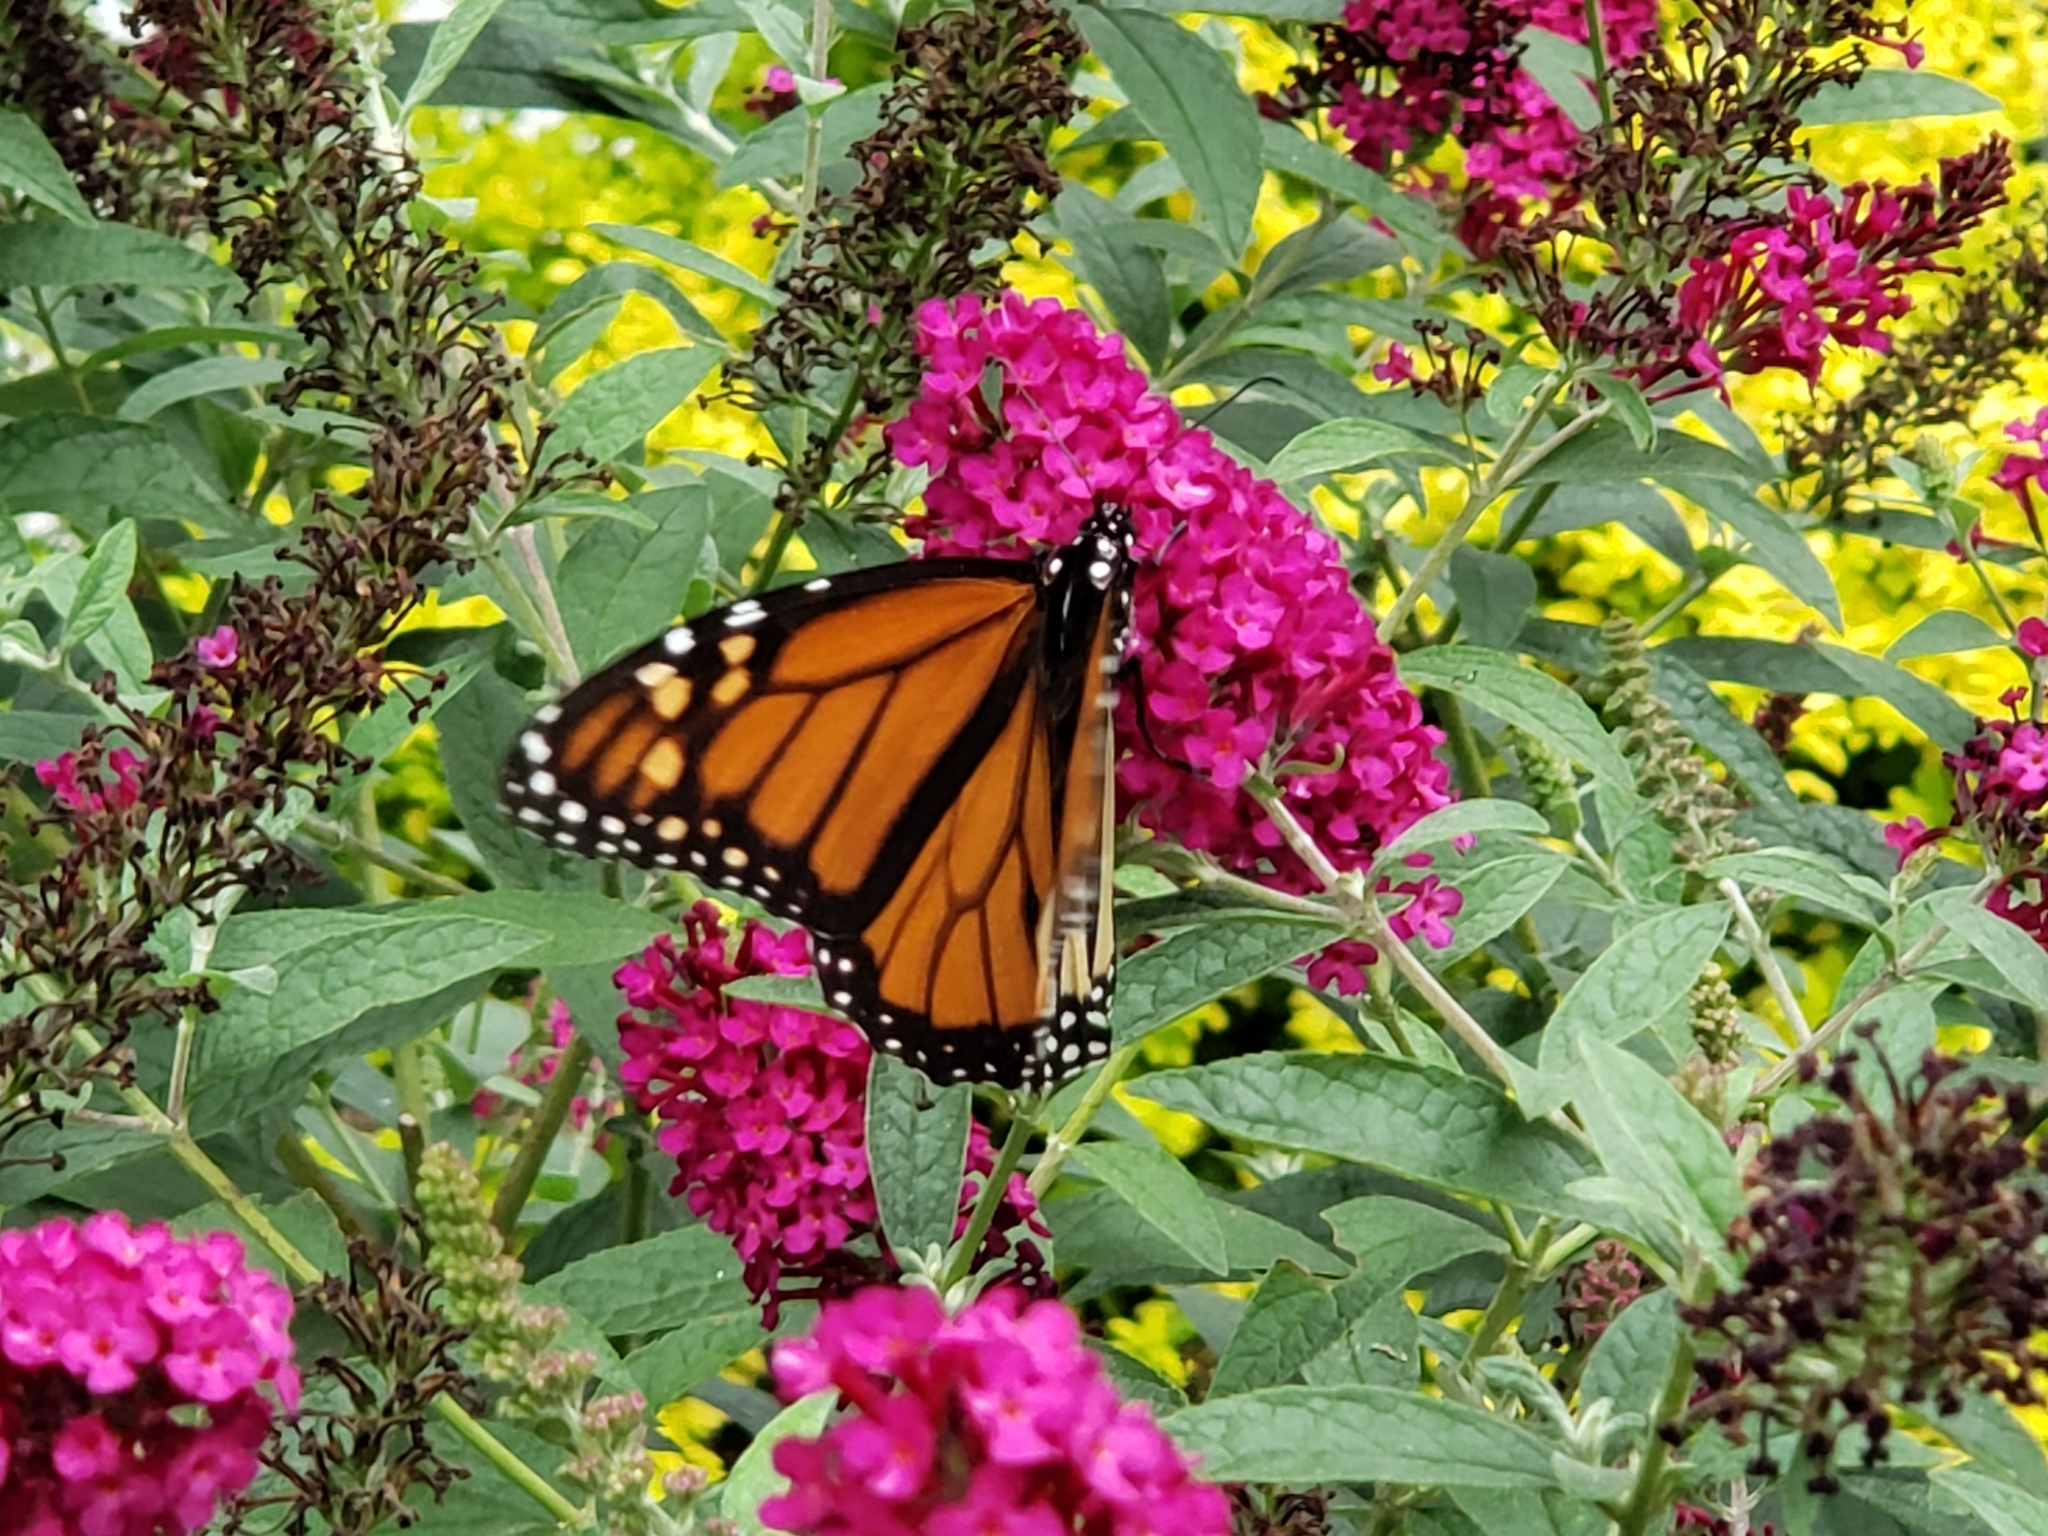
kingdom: Animalia
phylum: Arthropoda
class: Insecta
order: Lepidoptera
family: Nymphalidae
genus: Danaus
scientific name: Danaus plexippus
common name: Monarch
